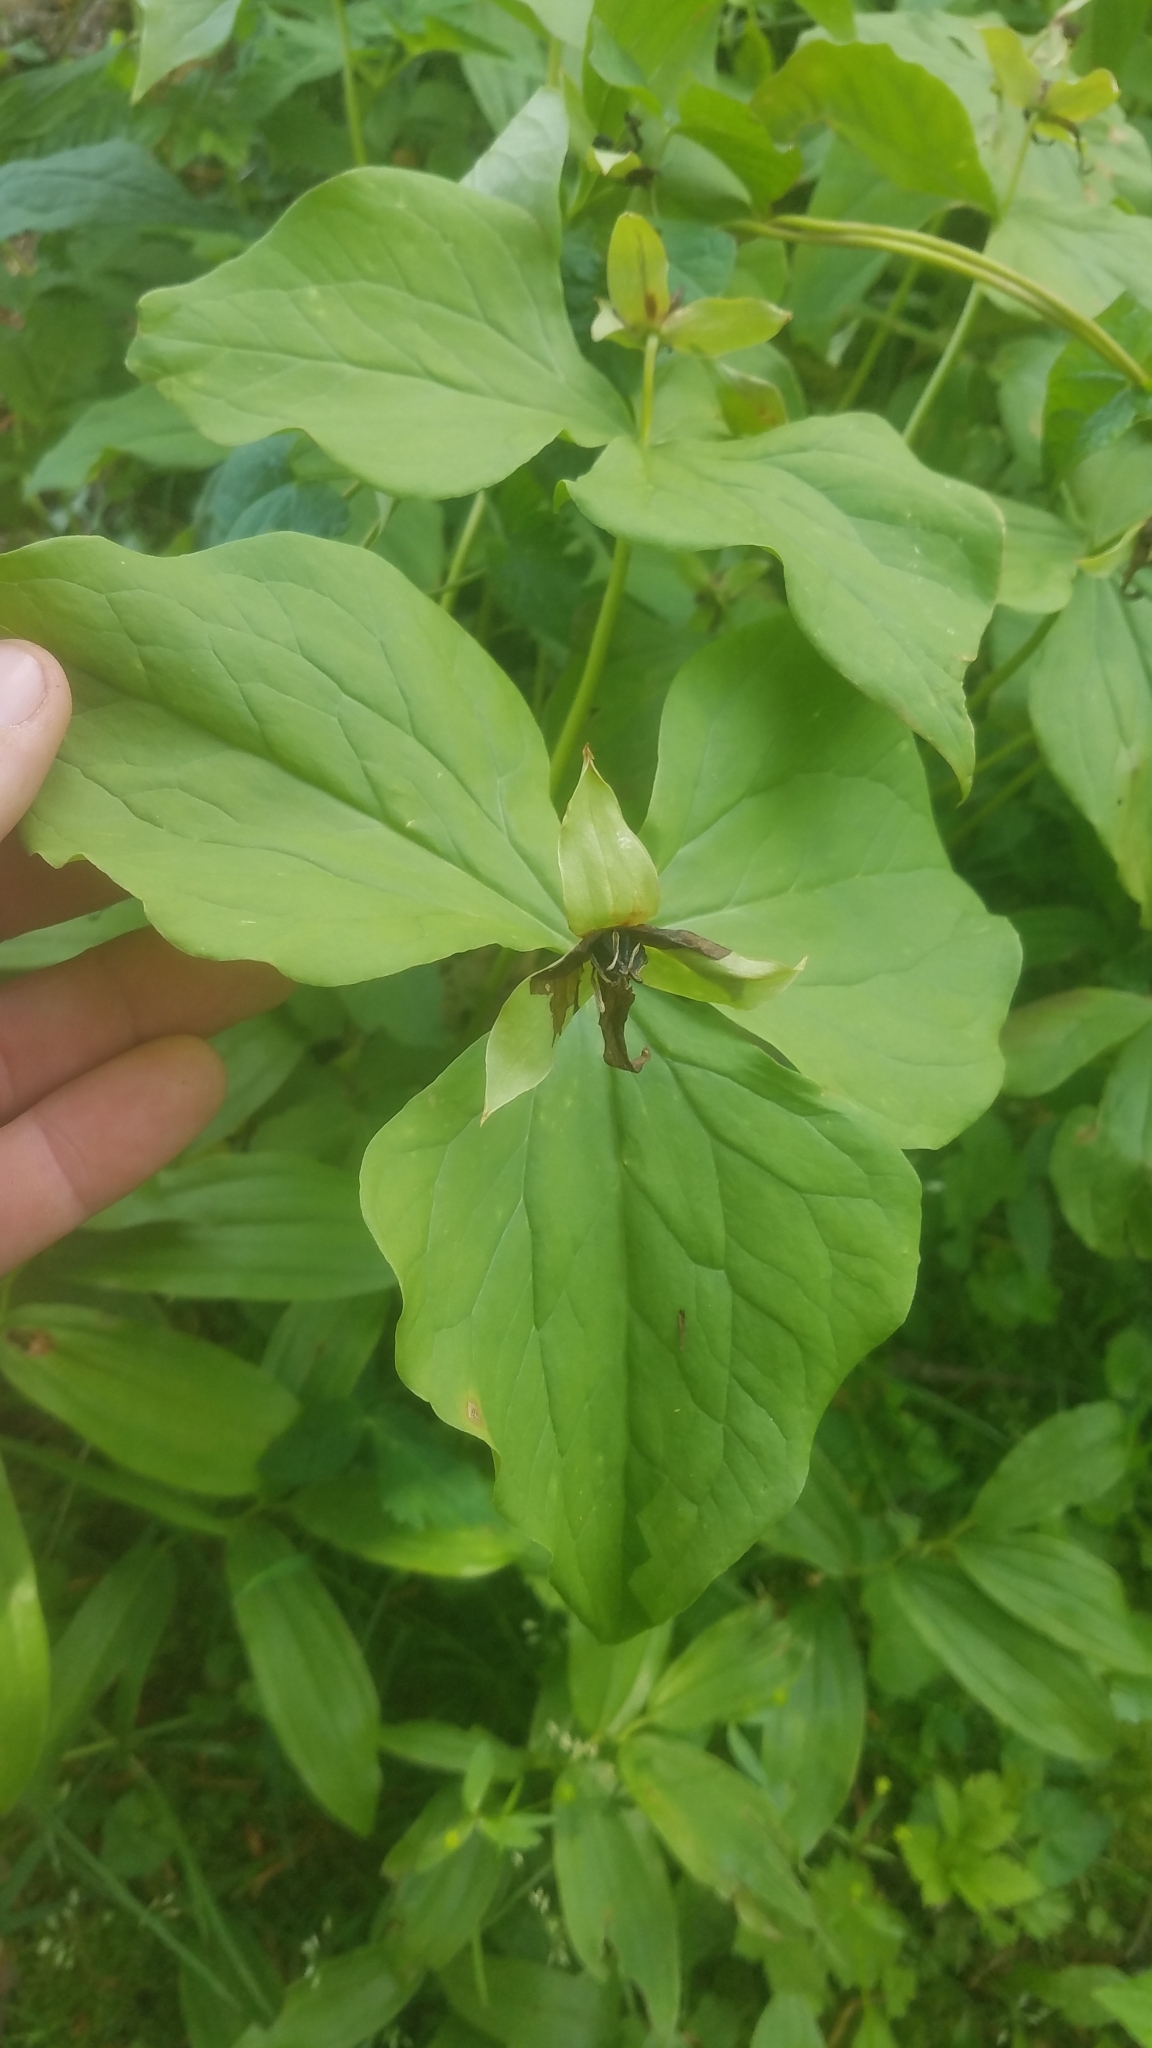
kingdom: Plantae
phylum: Tracheophyta
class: Liliopsida
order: Liliales
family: Melanthiaceae
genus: Trillium
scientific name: Trillium erectum
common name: Purple trillium
